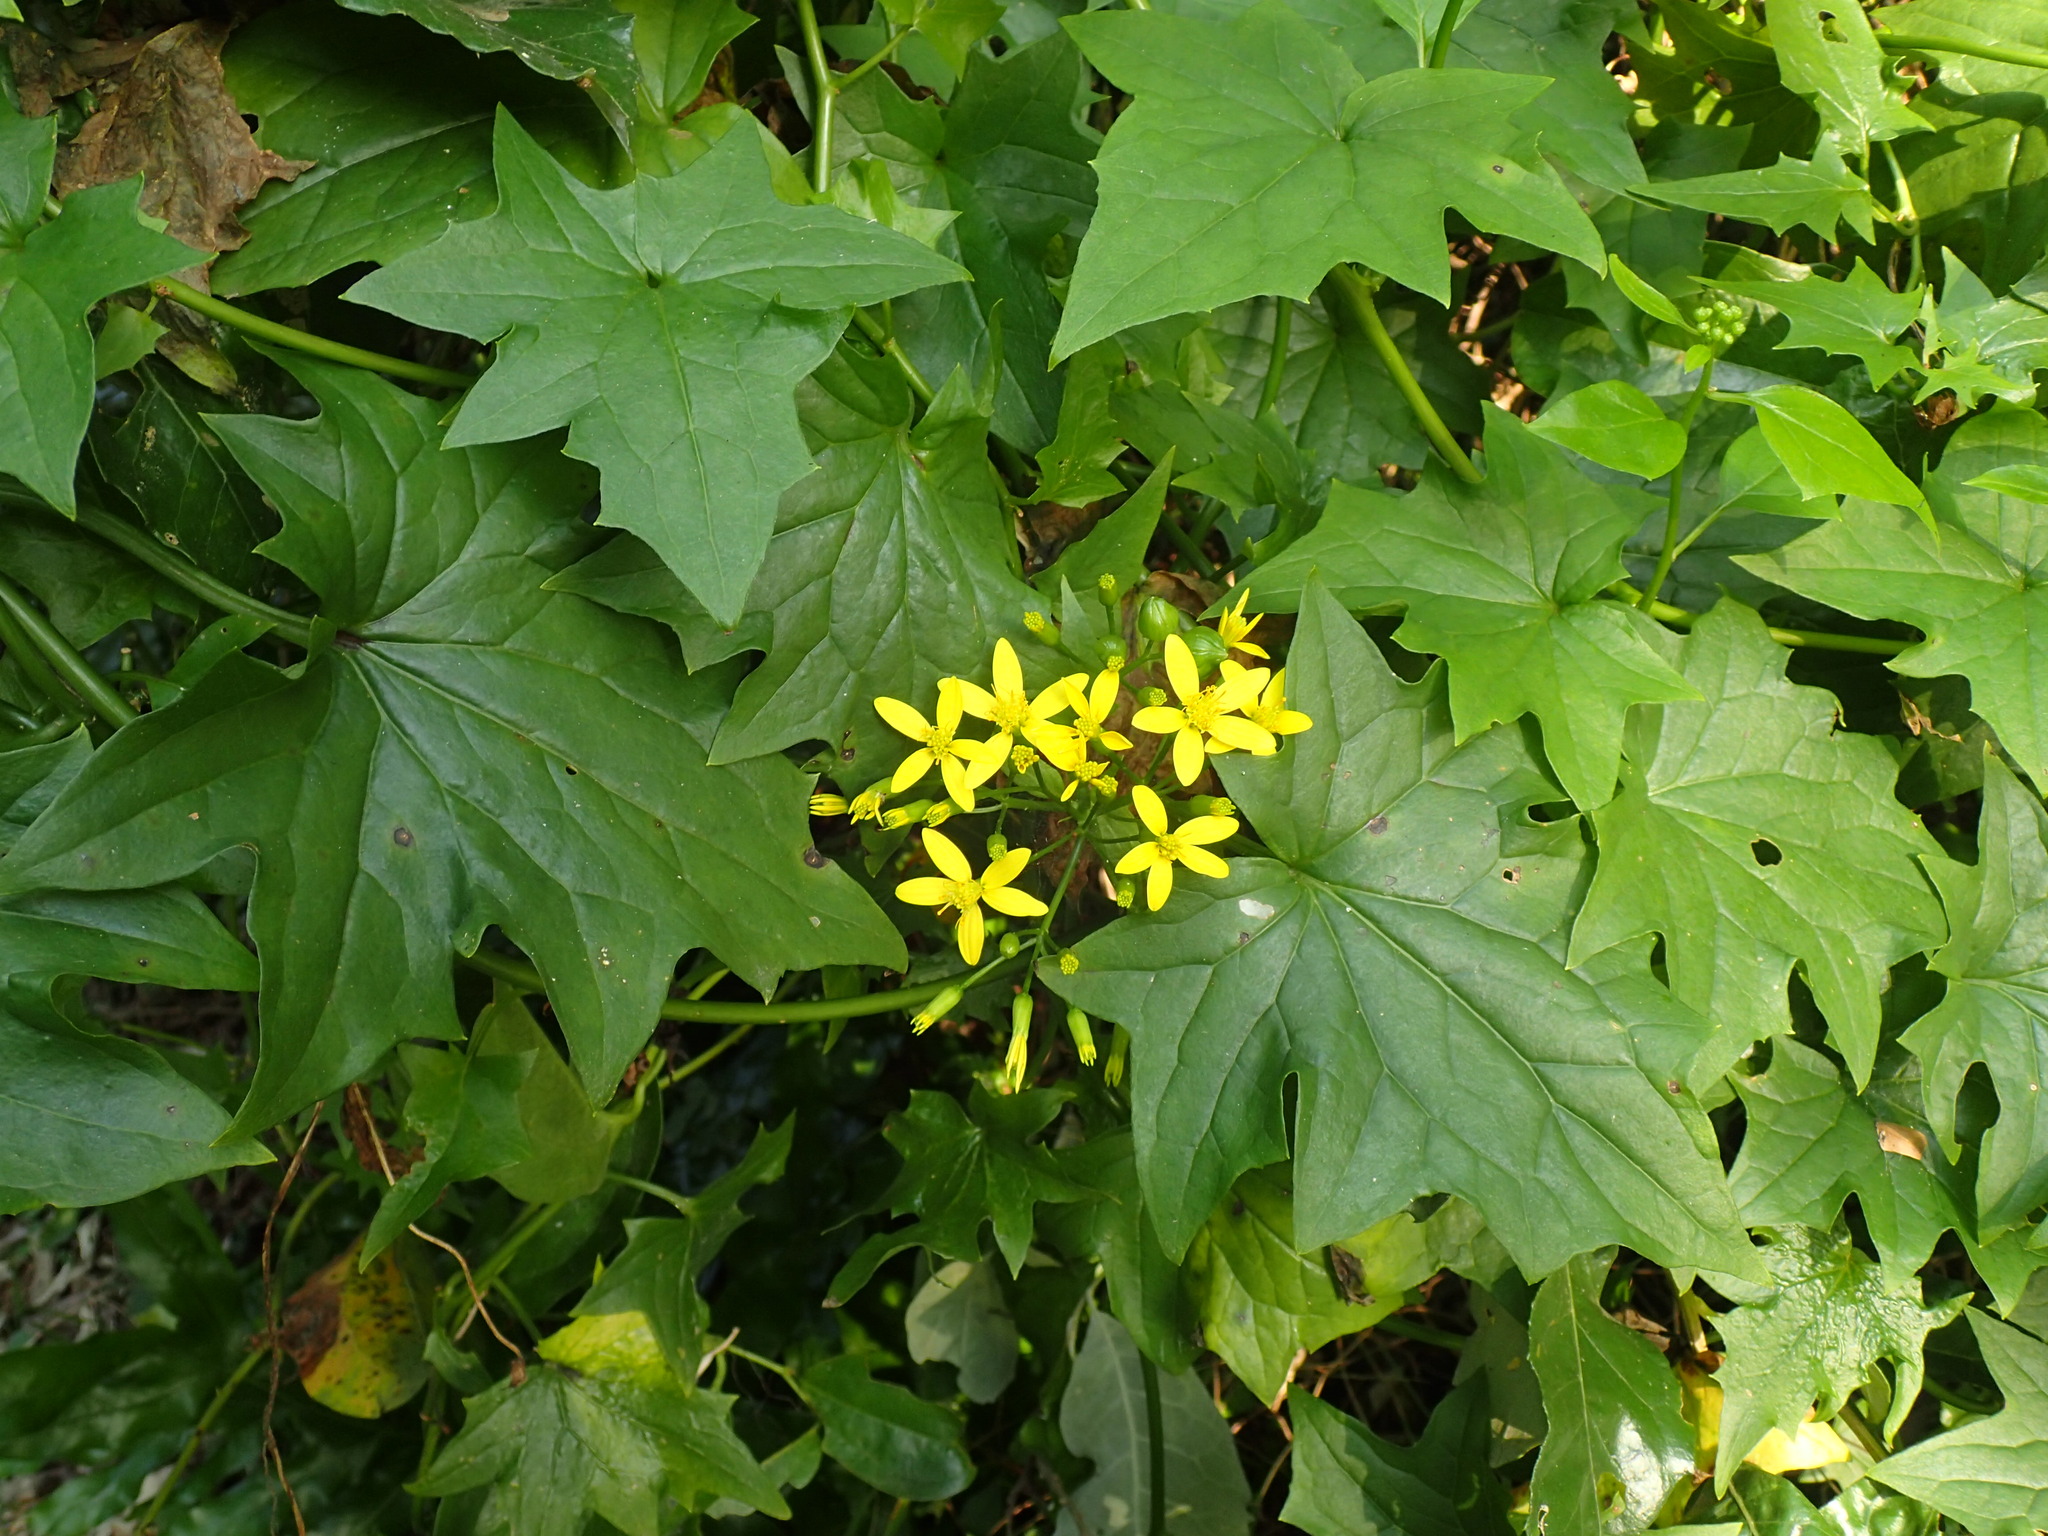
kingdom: Plantae
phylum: Tracheophyta
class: Magnoliopsida
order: Asterales
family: Asteraceae
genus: Senecio
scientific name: Senecio tamoides
